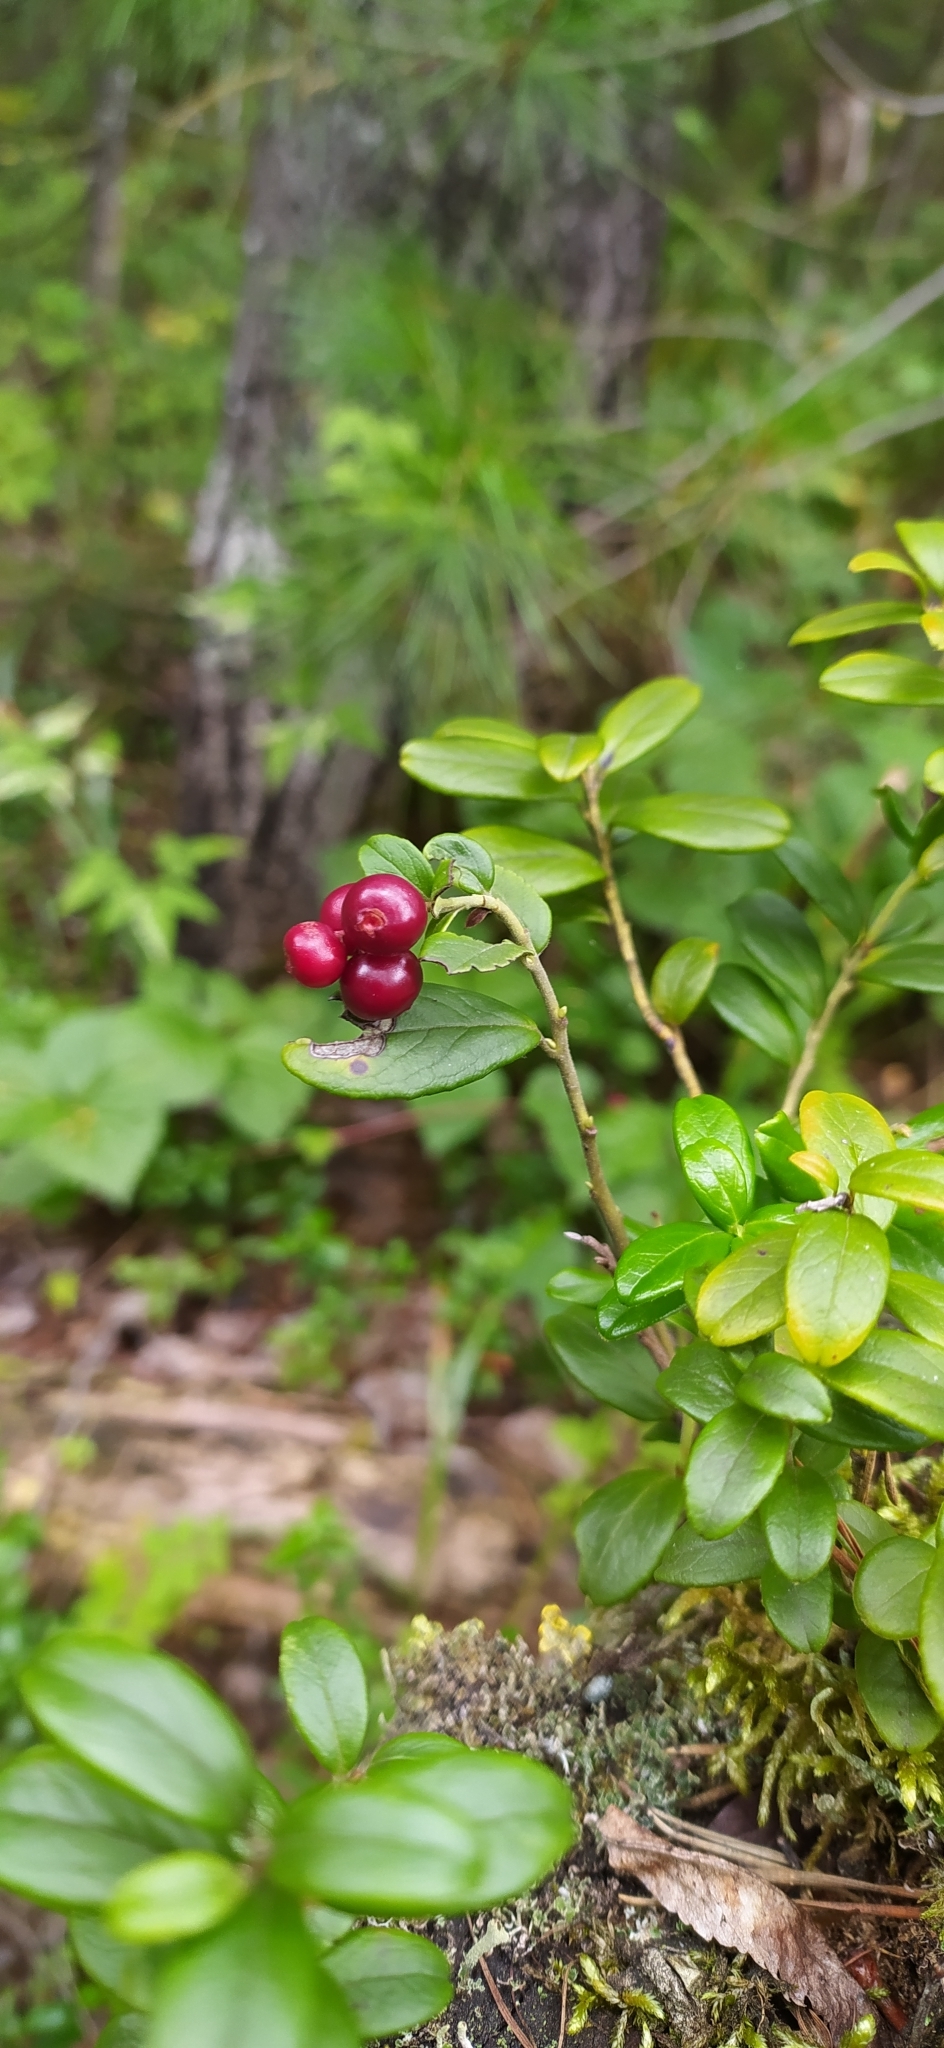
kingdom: Plantae
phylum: Tracheophyta
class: Magnoliopsida
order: Ericales
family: Ericaceae
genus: Vaccinium
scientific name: Vaccinium vitis-idaea
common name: Cowberry
